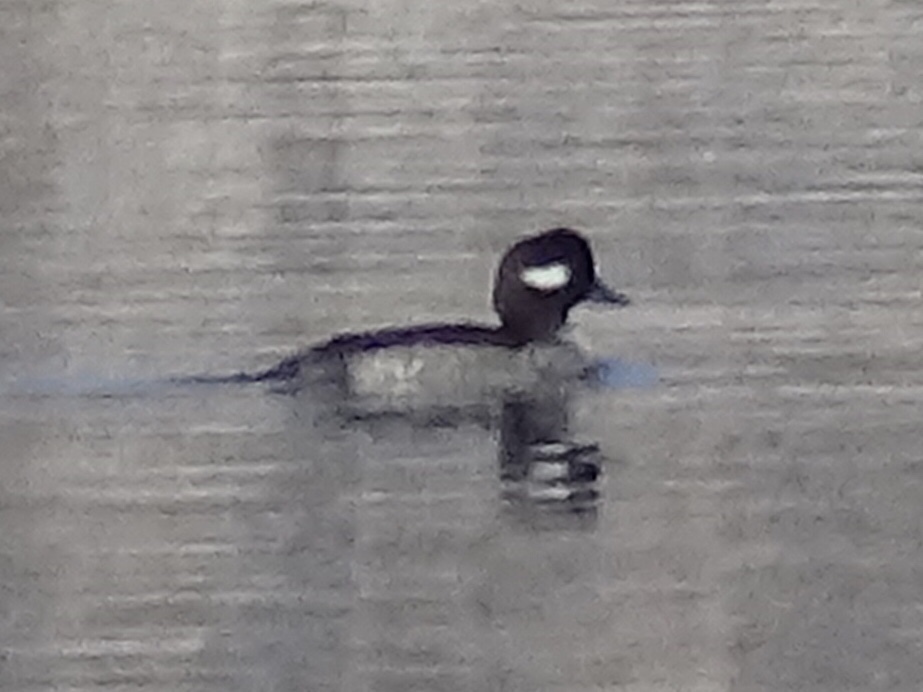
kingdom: Animalia
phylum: Chordata
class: Aves
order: Anseriformes
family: Anatidae
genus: Bucephala
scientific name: Bucephala albeola
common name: Bufflehead
